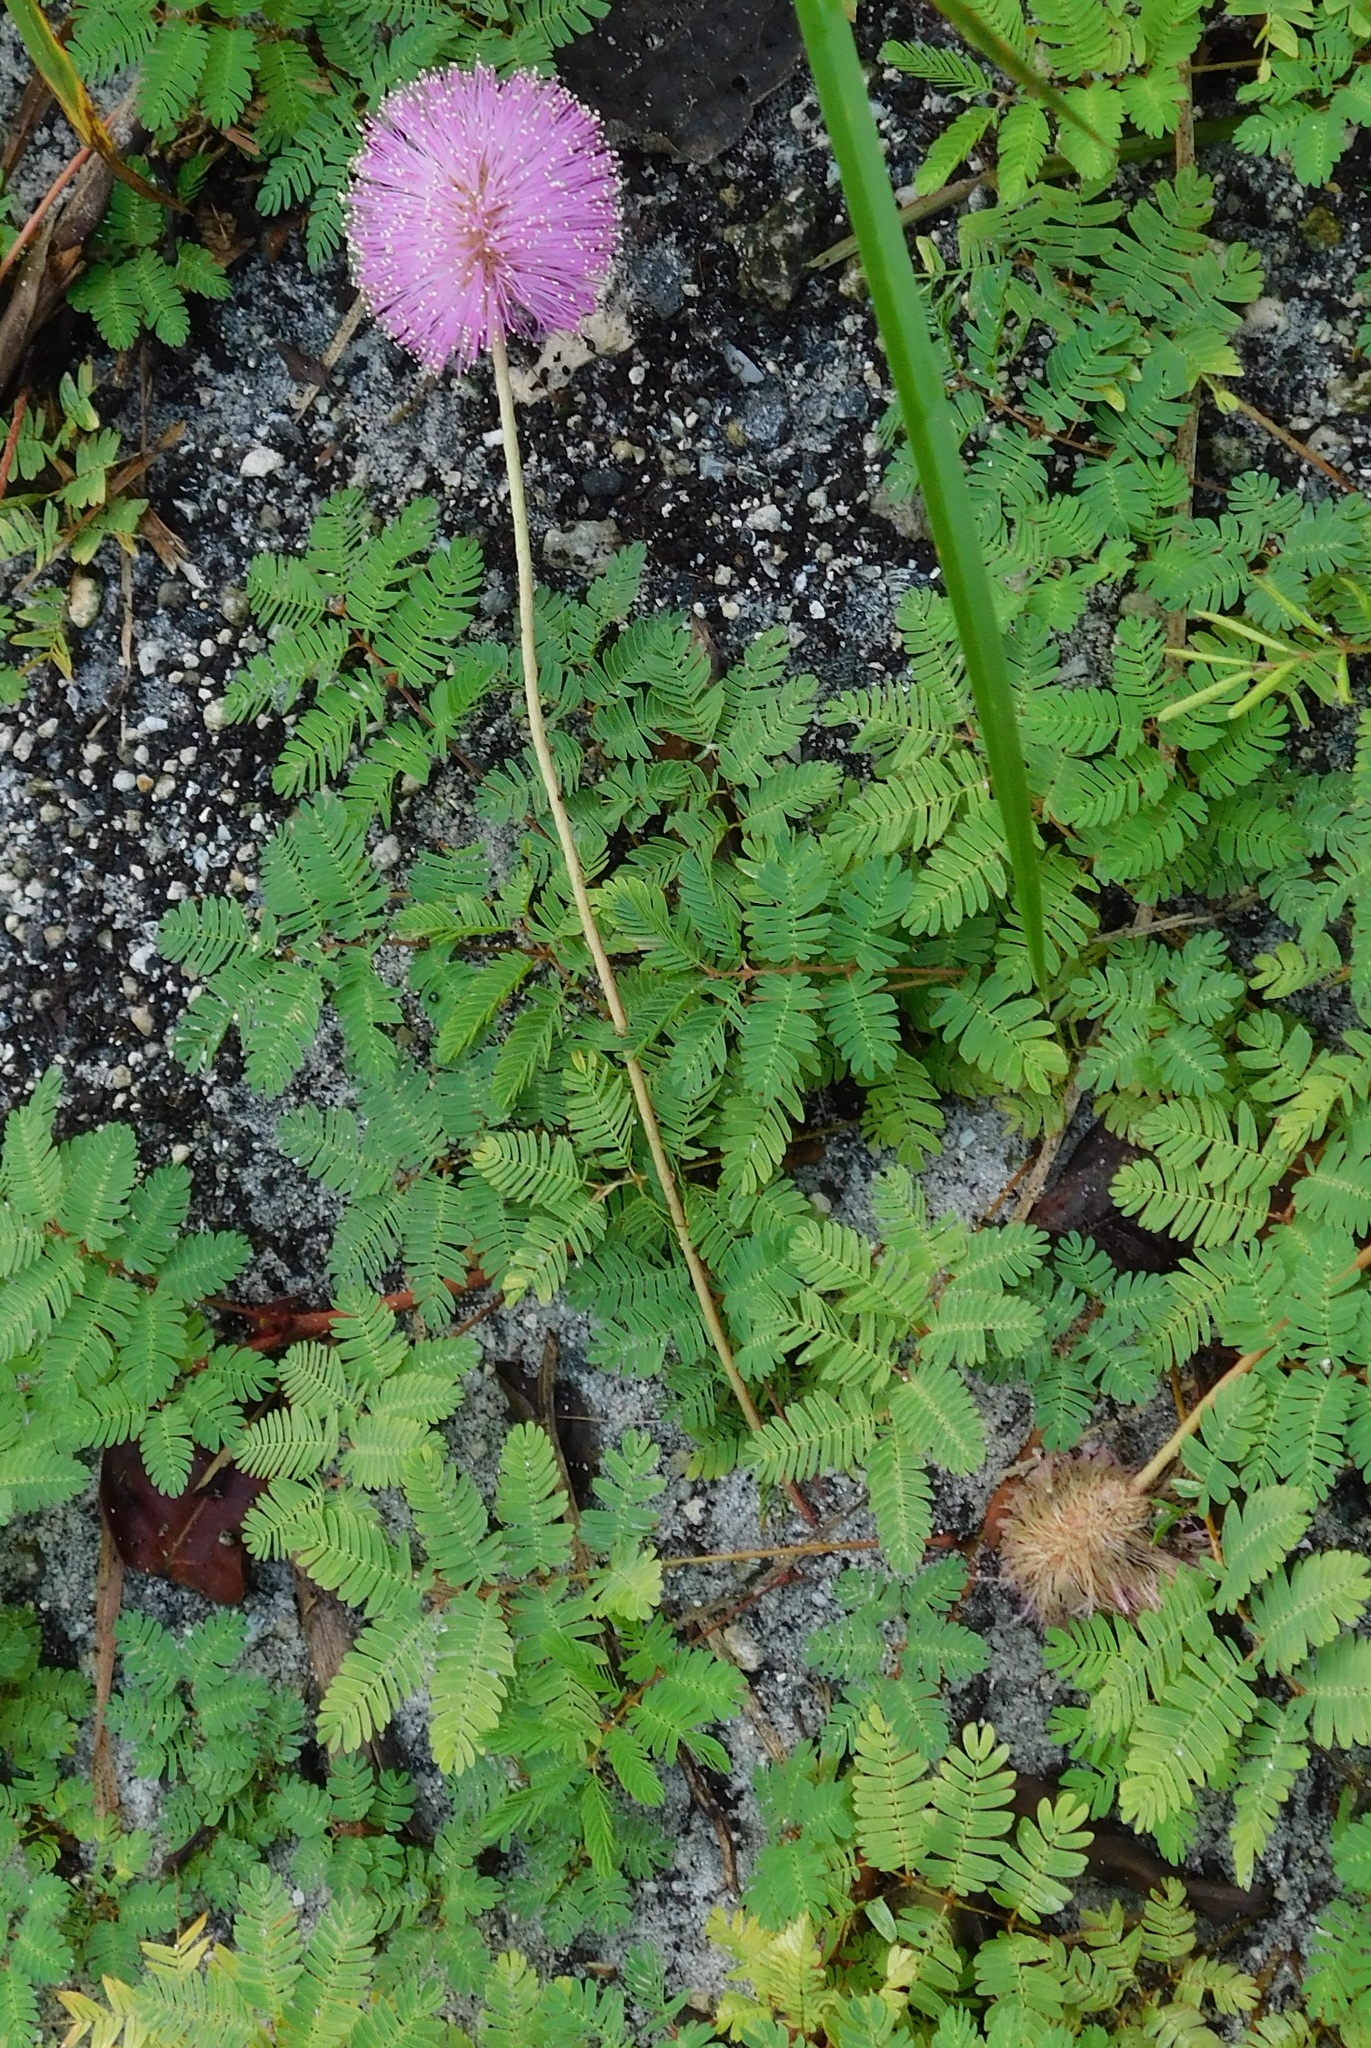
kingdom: Plantae
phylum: Tracheophyta
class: Magnoliopsida
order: Fabales
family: Fabaceae
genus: Mimosa
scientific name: Mimosa strigillosa
